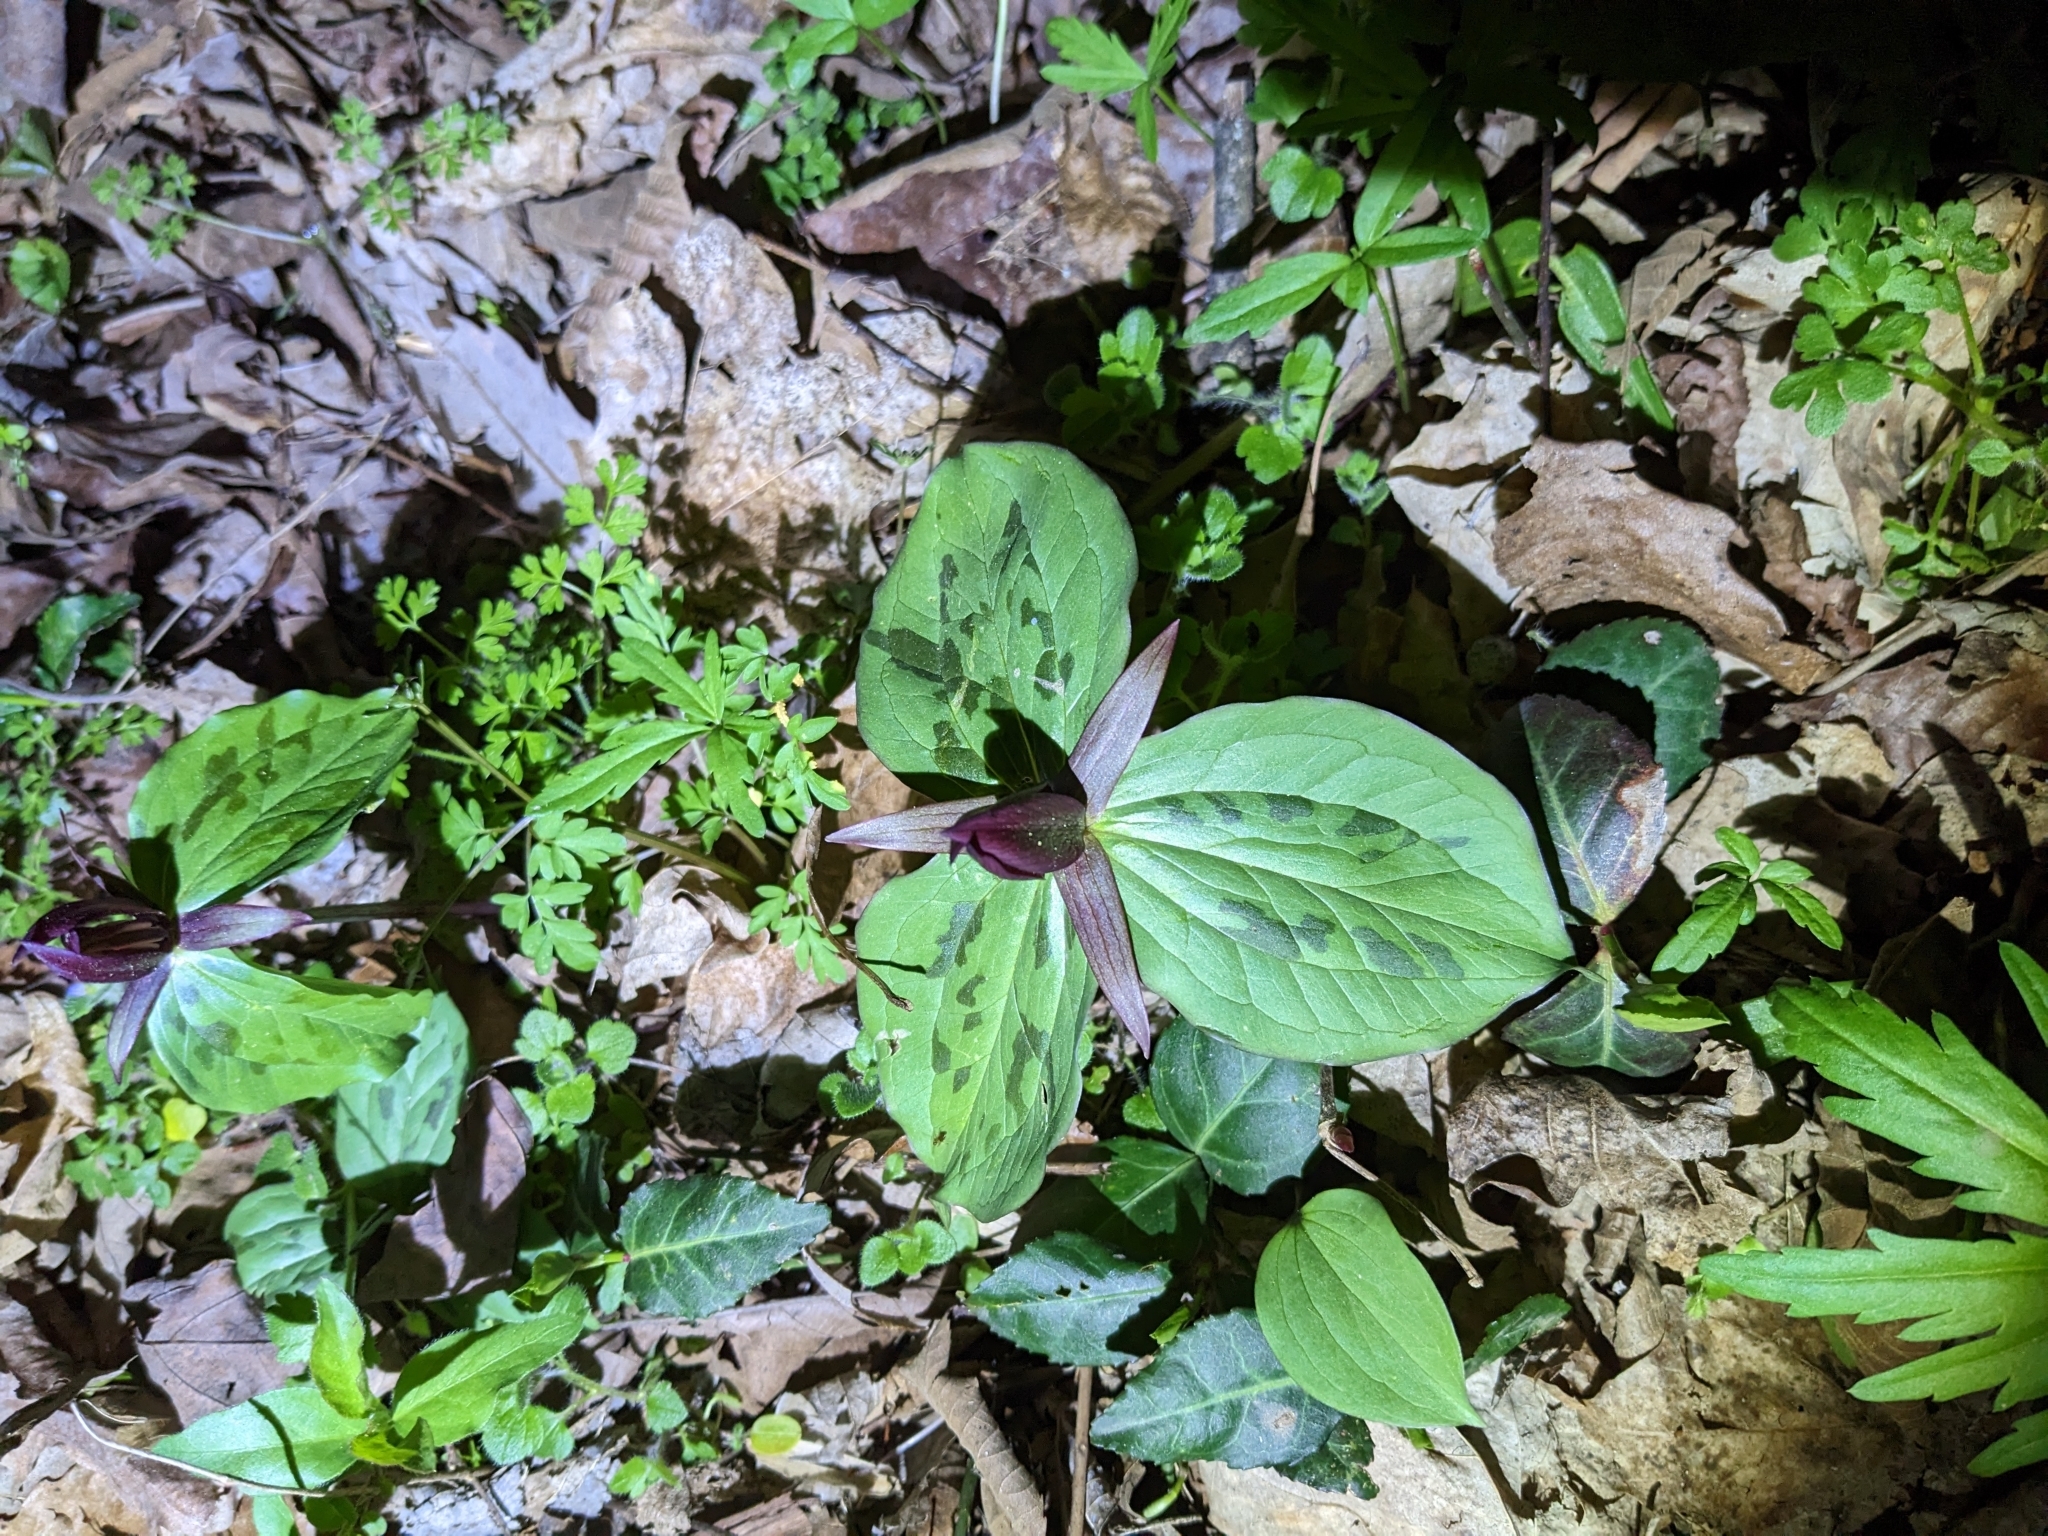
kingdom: Plantae
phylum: Tracheophyta
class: Liliopsida
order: Liliales
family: Melanthiaceae
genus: Trillium
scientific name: Trillium sessile
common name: Sessile trillium
